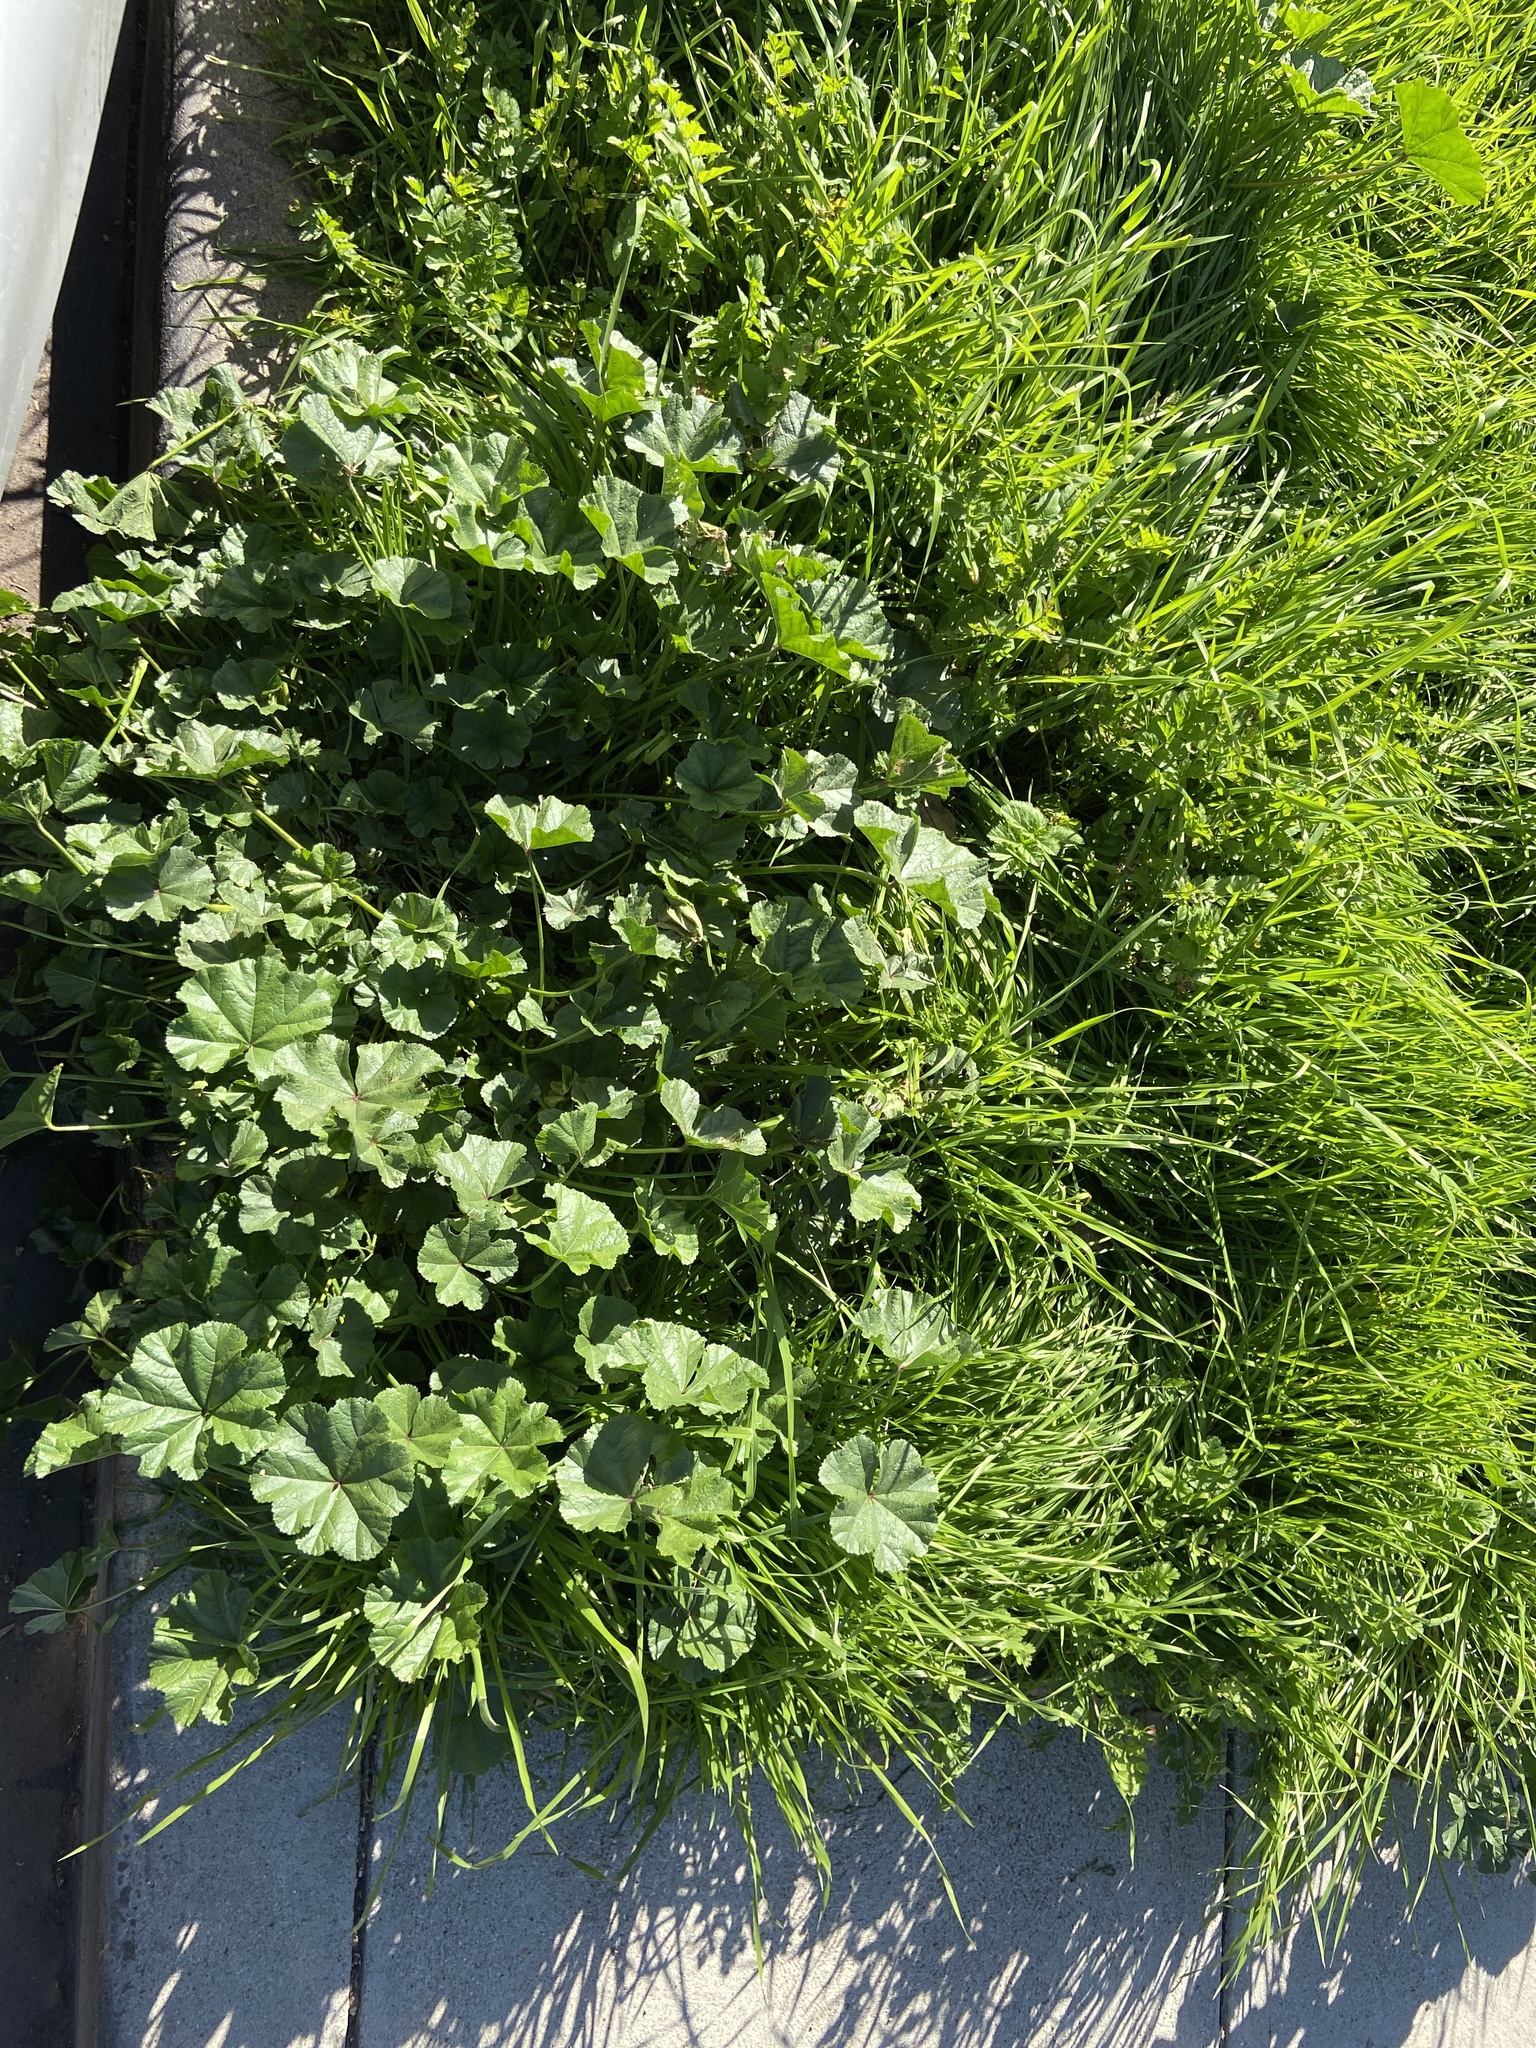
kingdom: Plantae
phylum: Tracheophyta
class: Magnoliopsida
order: Malvales
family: Malvaceae
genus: Malva
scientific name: Malva
